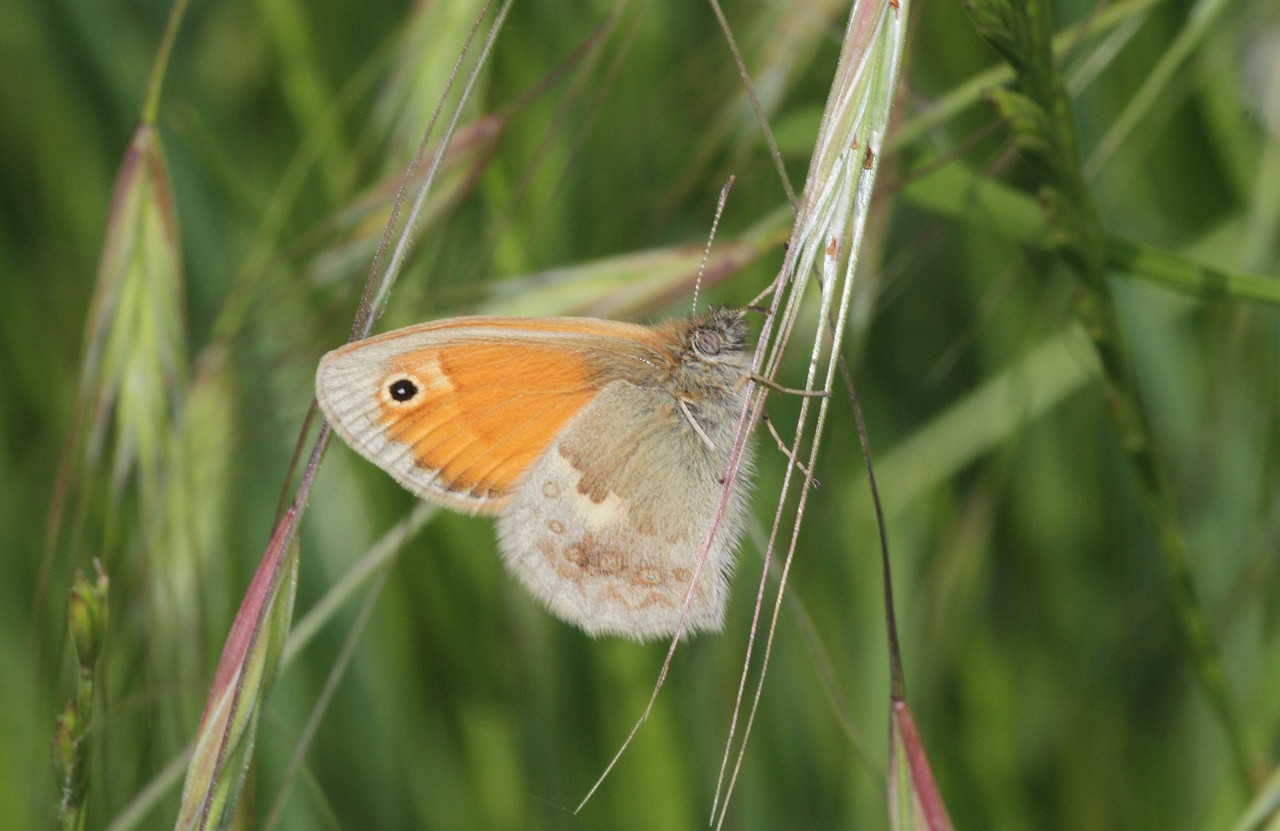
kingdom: Animalia
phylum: Arthropoda
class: Insecta
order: Lepidoptera
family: Nymphalidae
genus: Coenonympha
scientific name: Coenonympha pamphilus
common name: Small heath
